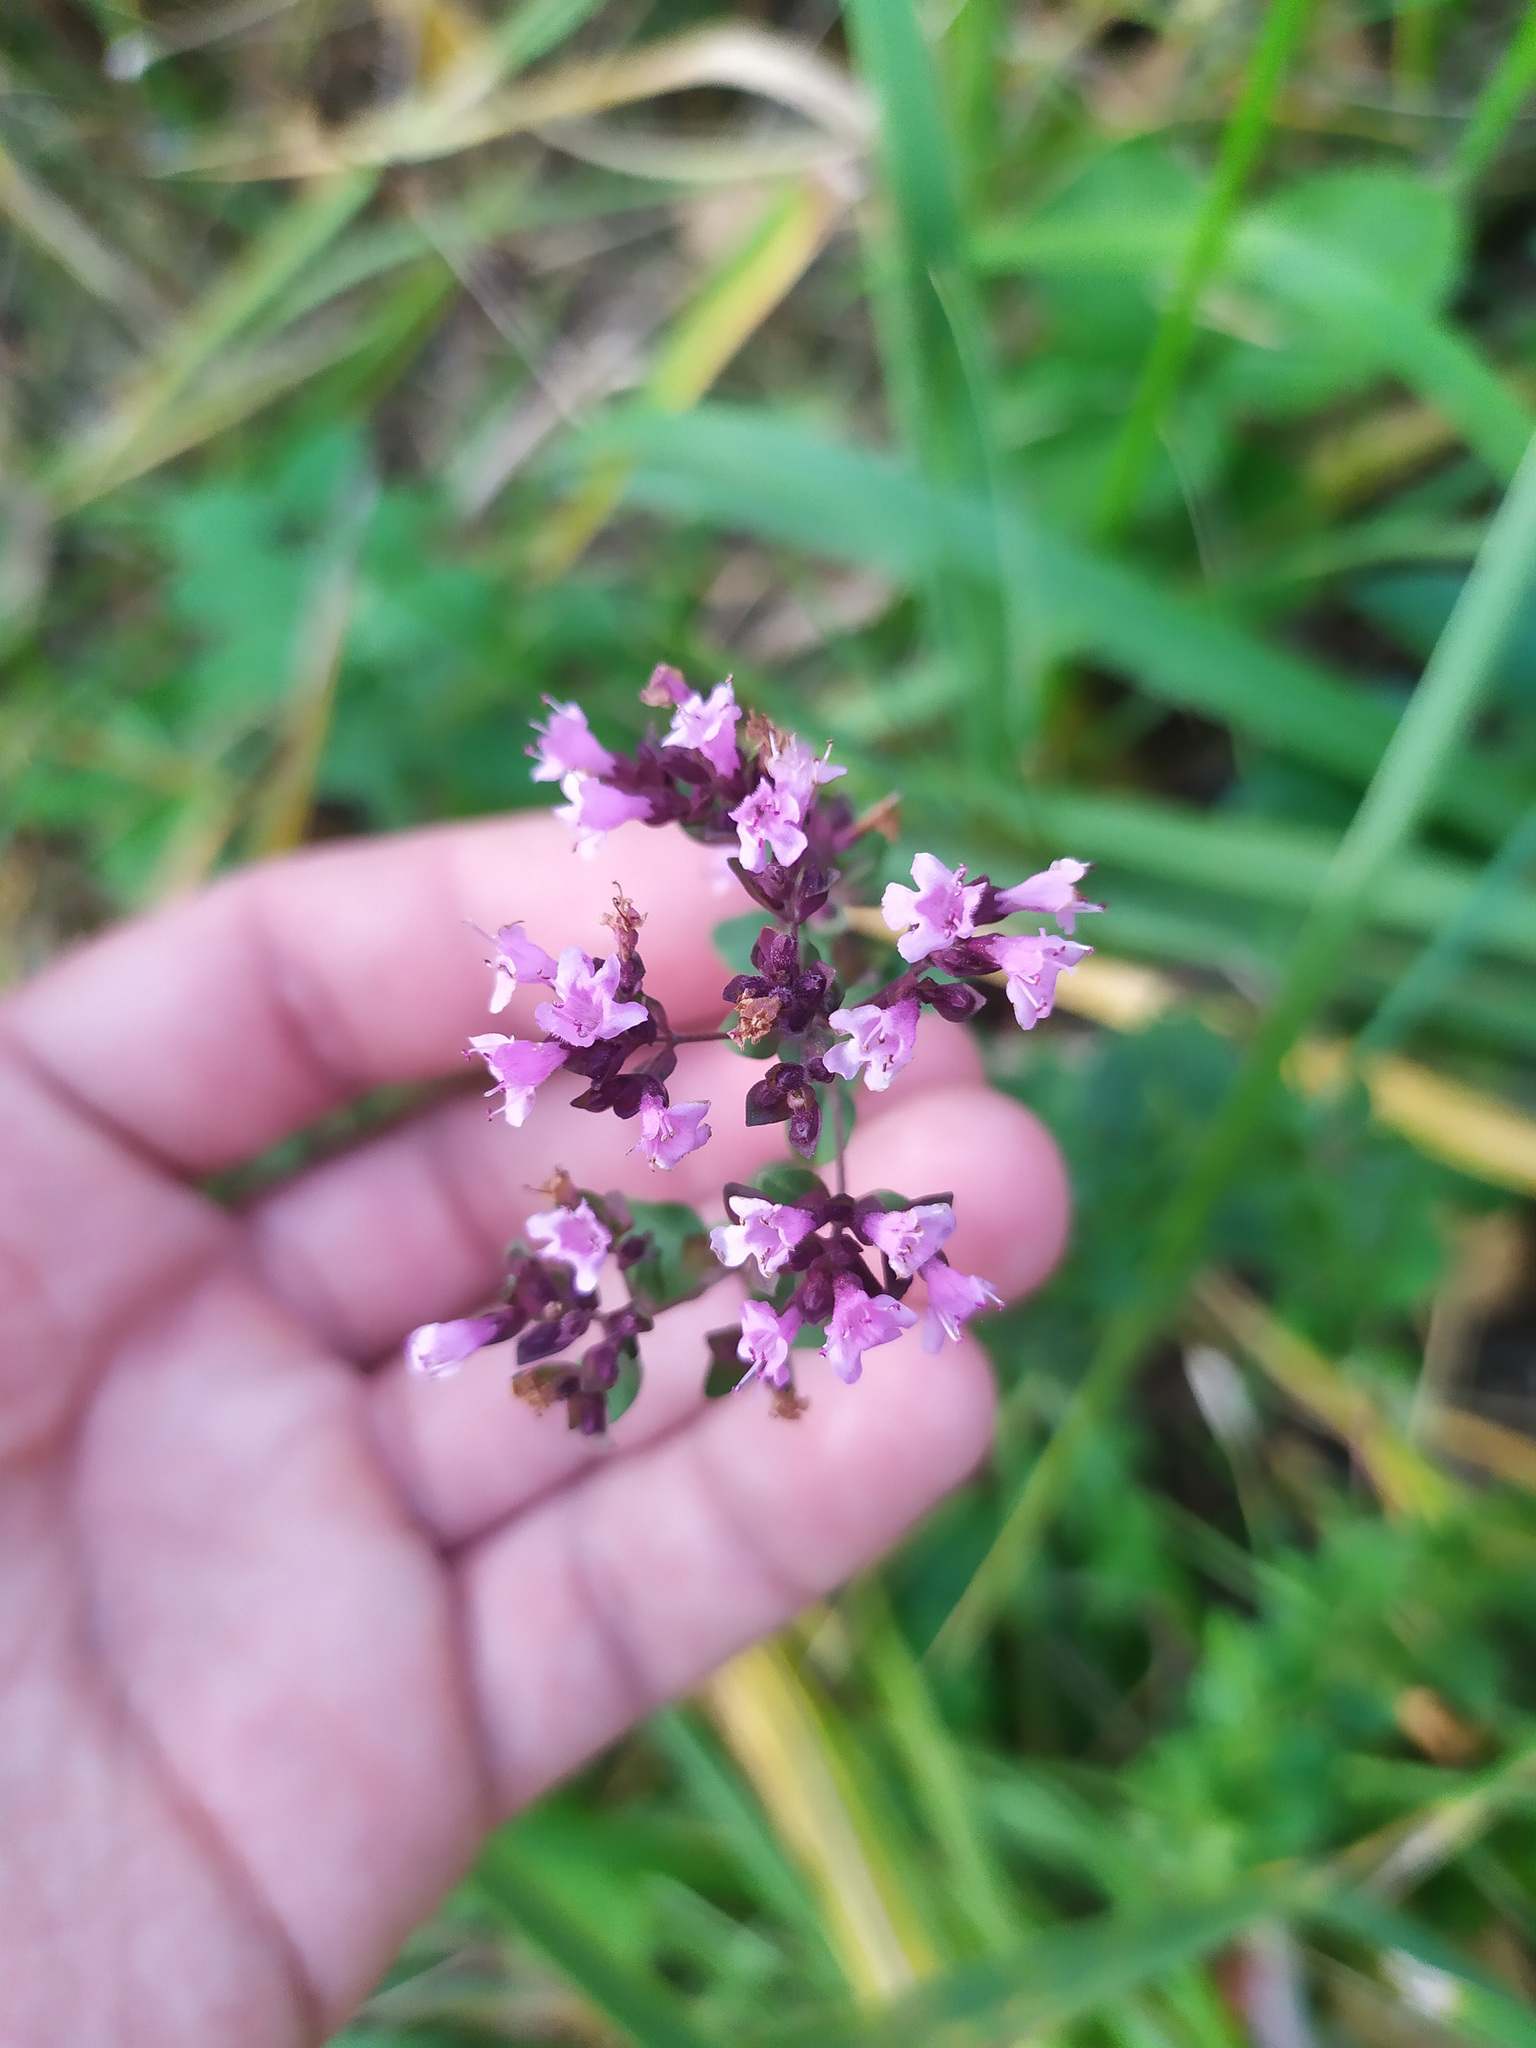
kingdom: Plantae
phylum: Tracheophyta
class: Magnoliopsida
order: Lamiales
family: Lamiaceae
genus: Origanum
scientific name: Origanum vulgare
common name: Wild marjoram
